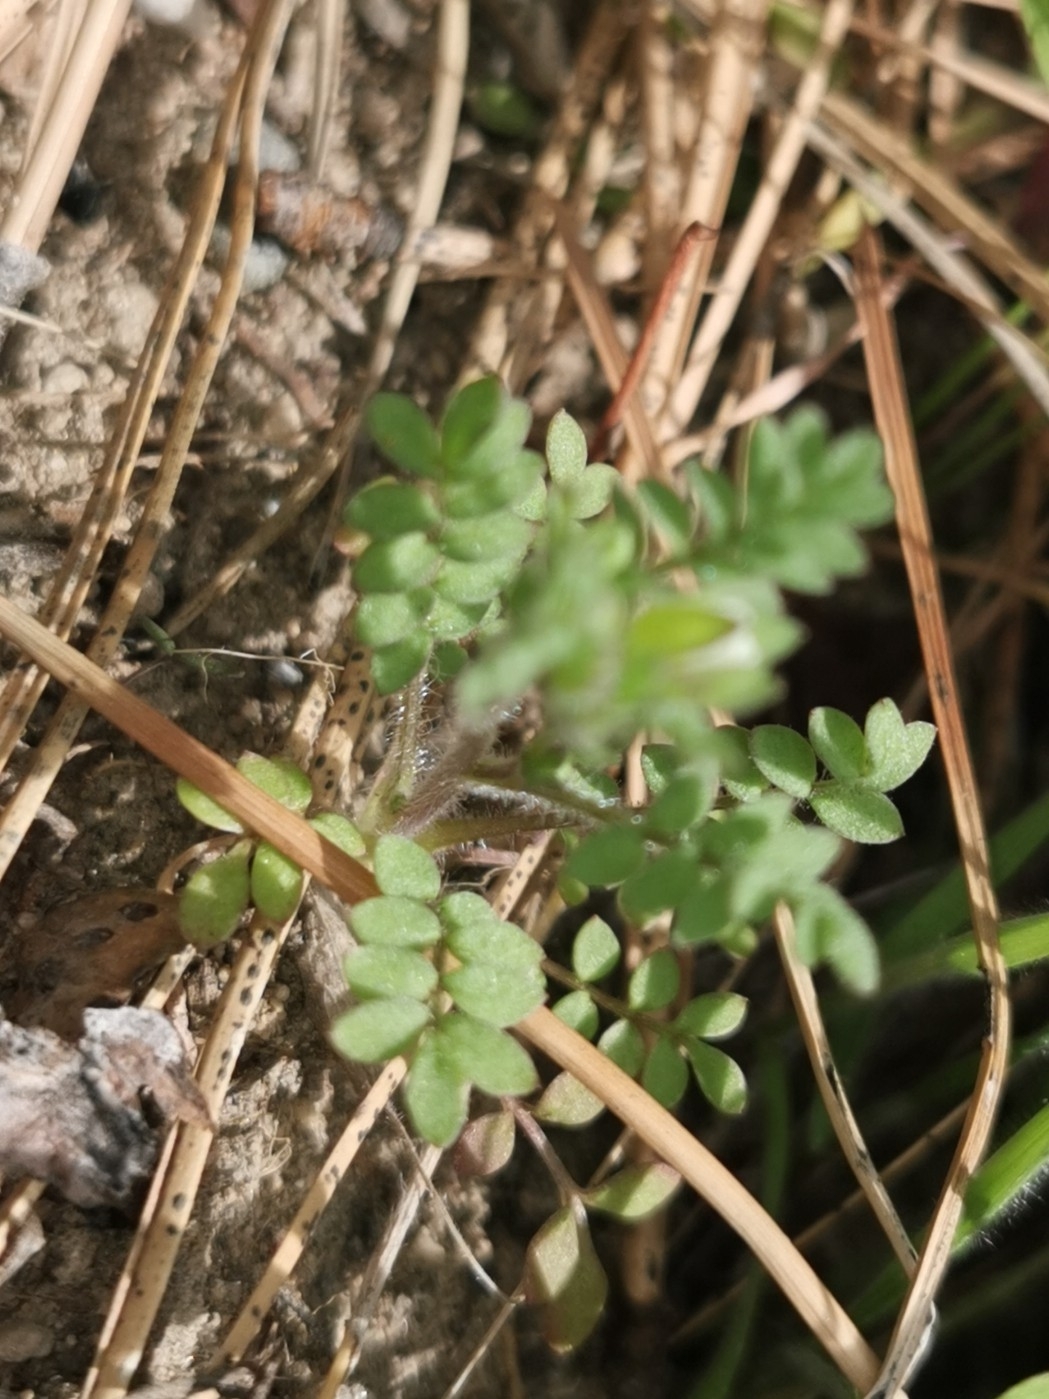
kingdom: Plantae
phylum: Tracheophyta
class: Magnoliopsida
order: Ericales
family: Polemoniaceae
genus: Polemonium
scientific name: Polemonium micranthum
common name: Annual jacob's-ladder
